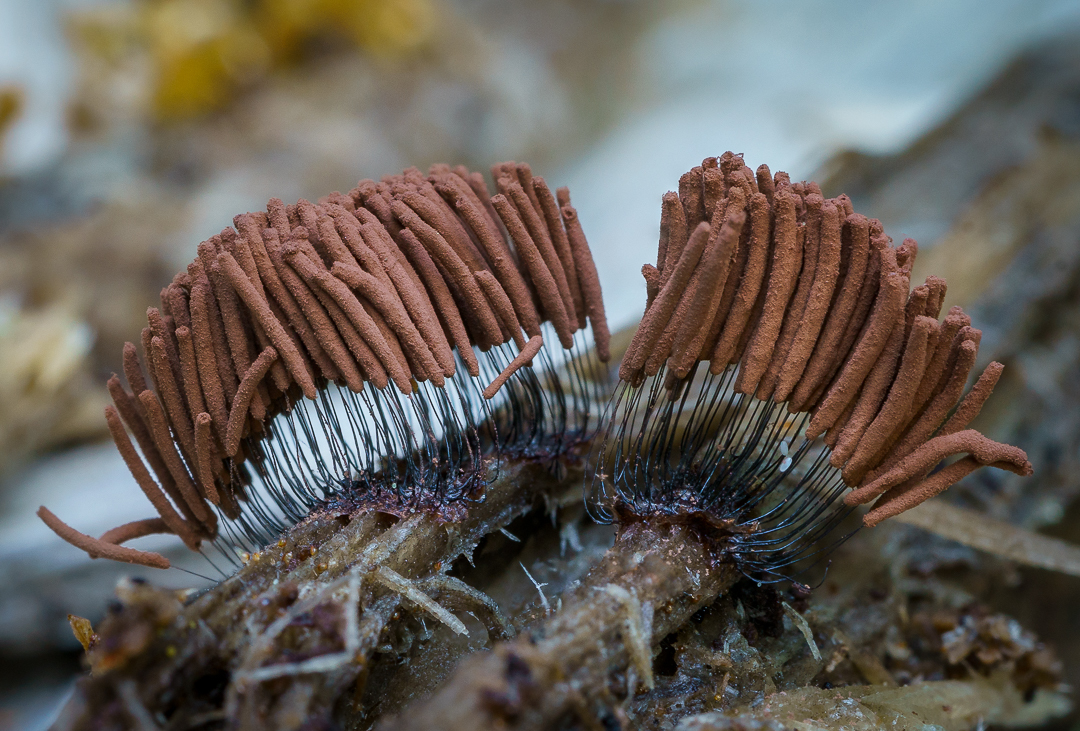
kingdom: Protozoa
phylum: Mycetozoa
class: Myxomycetes
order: Stemonitidales
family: Stemonitidaceae
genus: Stemonitis
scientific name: Stemonitis
